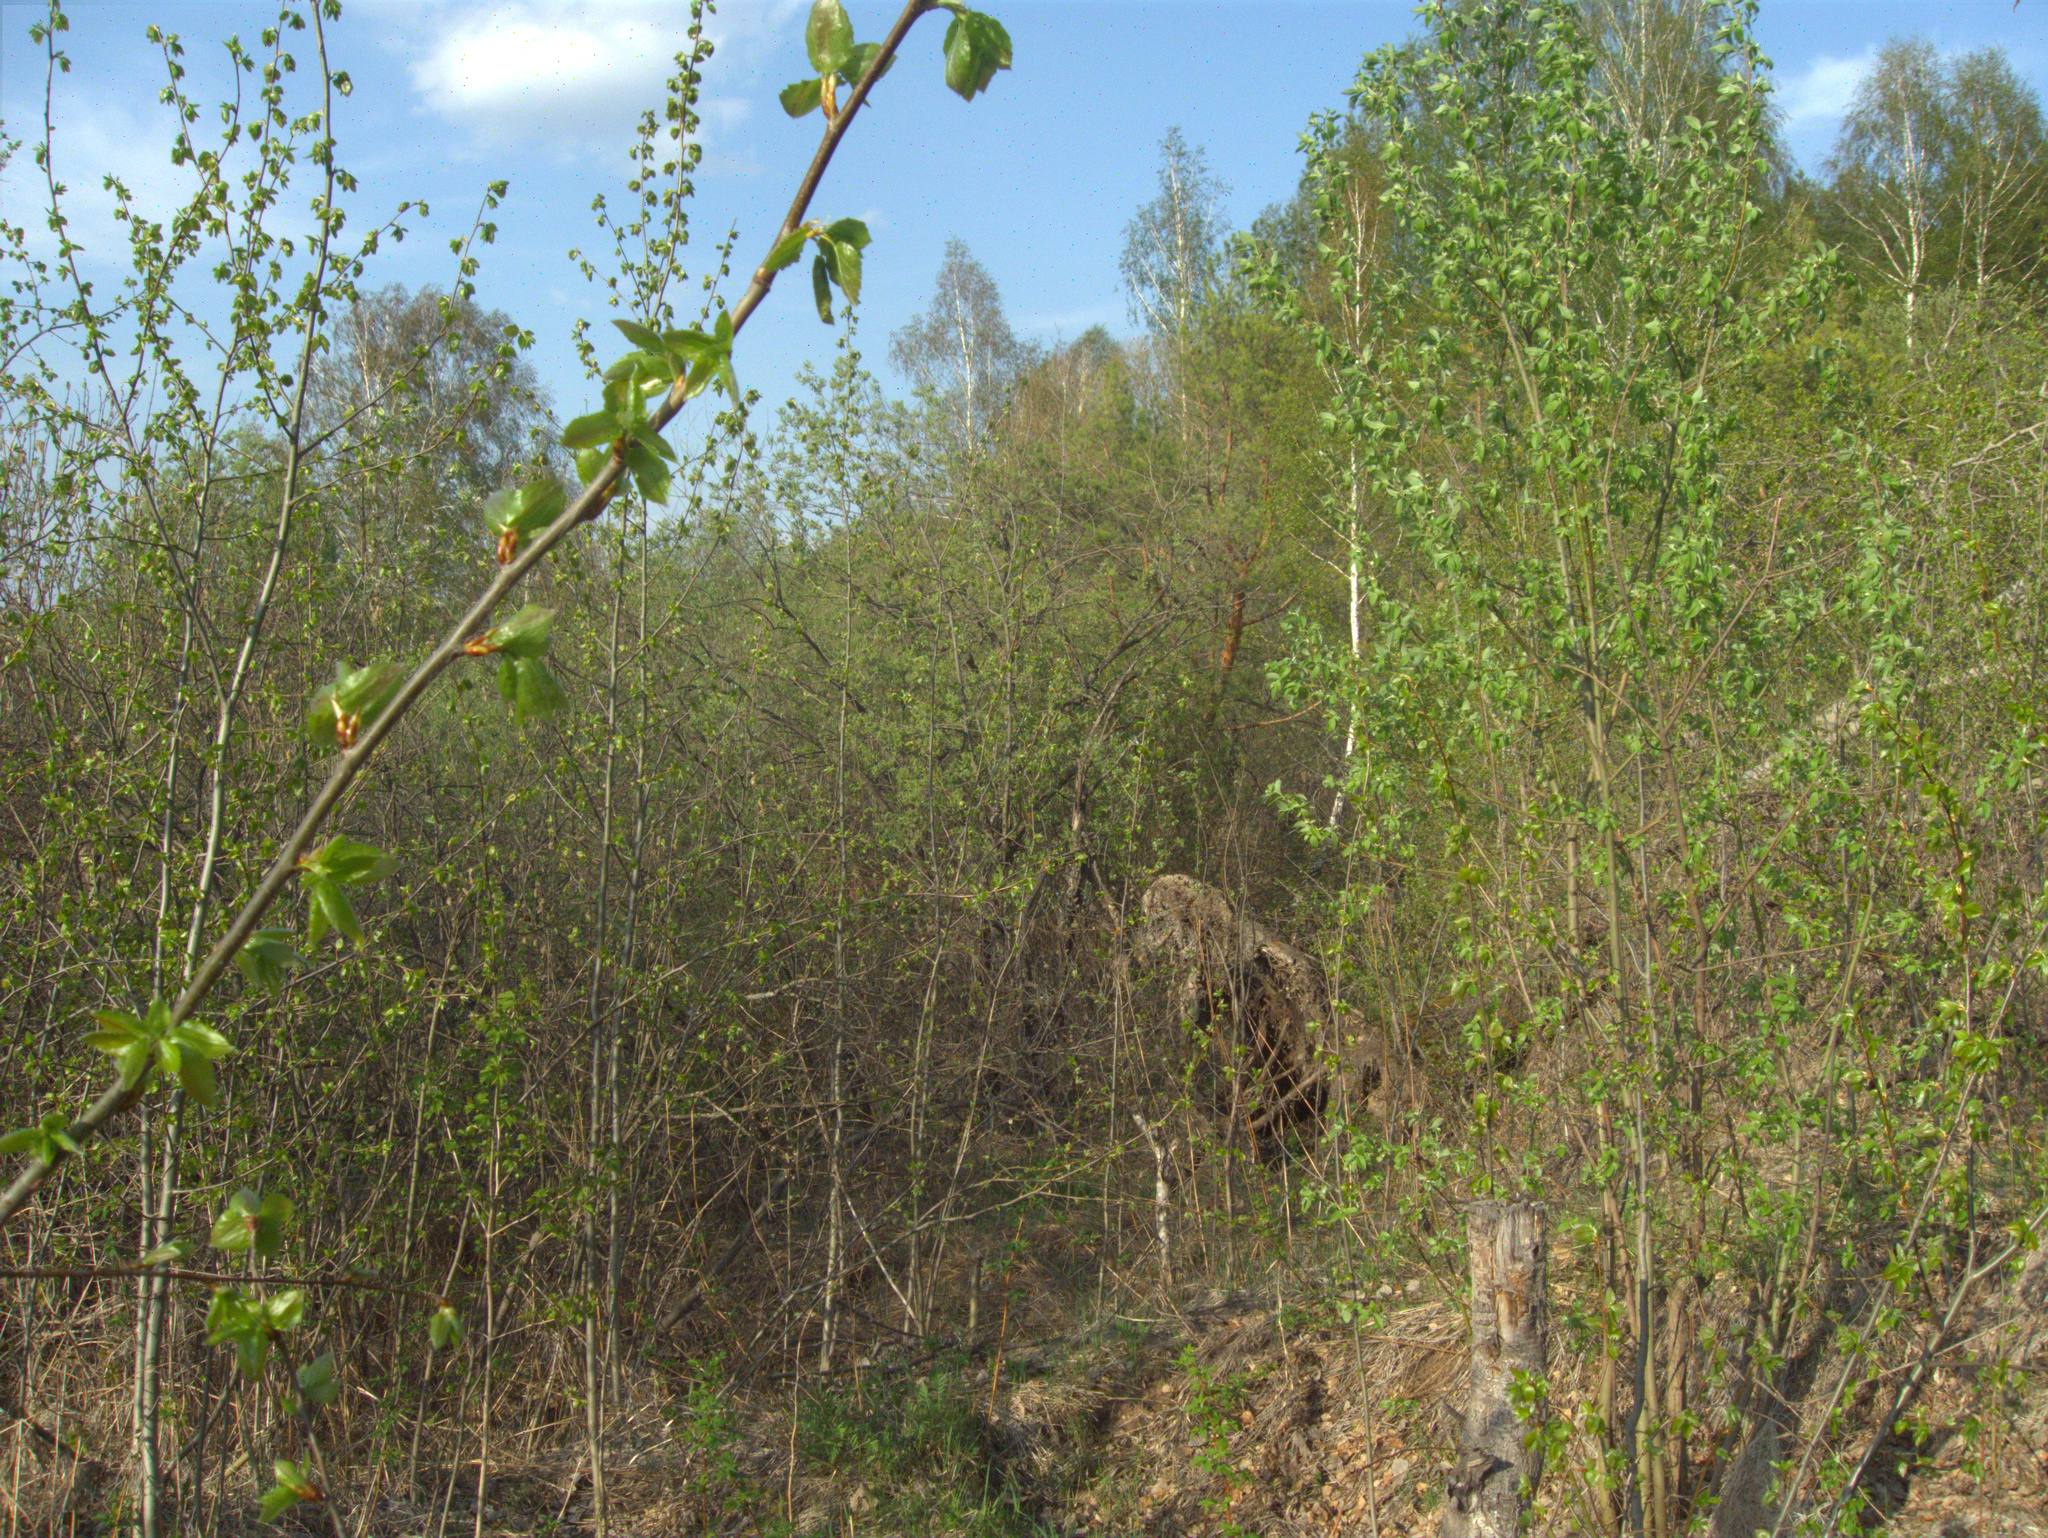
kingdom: Plantae
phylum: Tracheophyta
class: Magnoliopsida
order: Malpighiales
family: Salicaceae
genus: Populus
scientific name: Populus tremula
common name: European aspen
